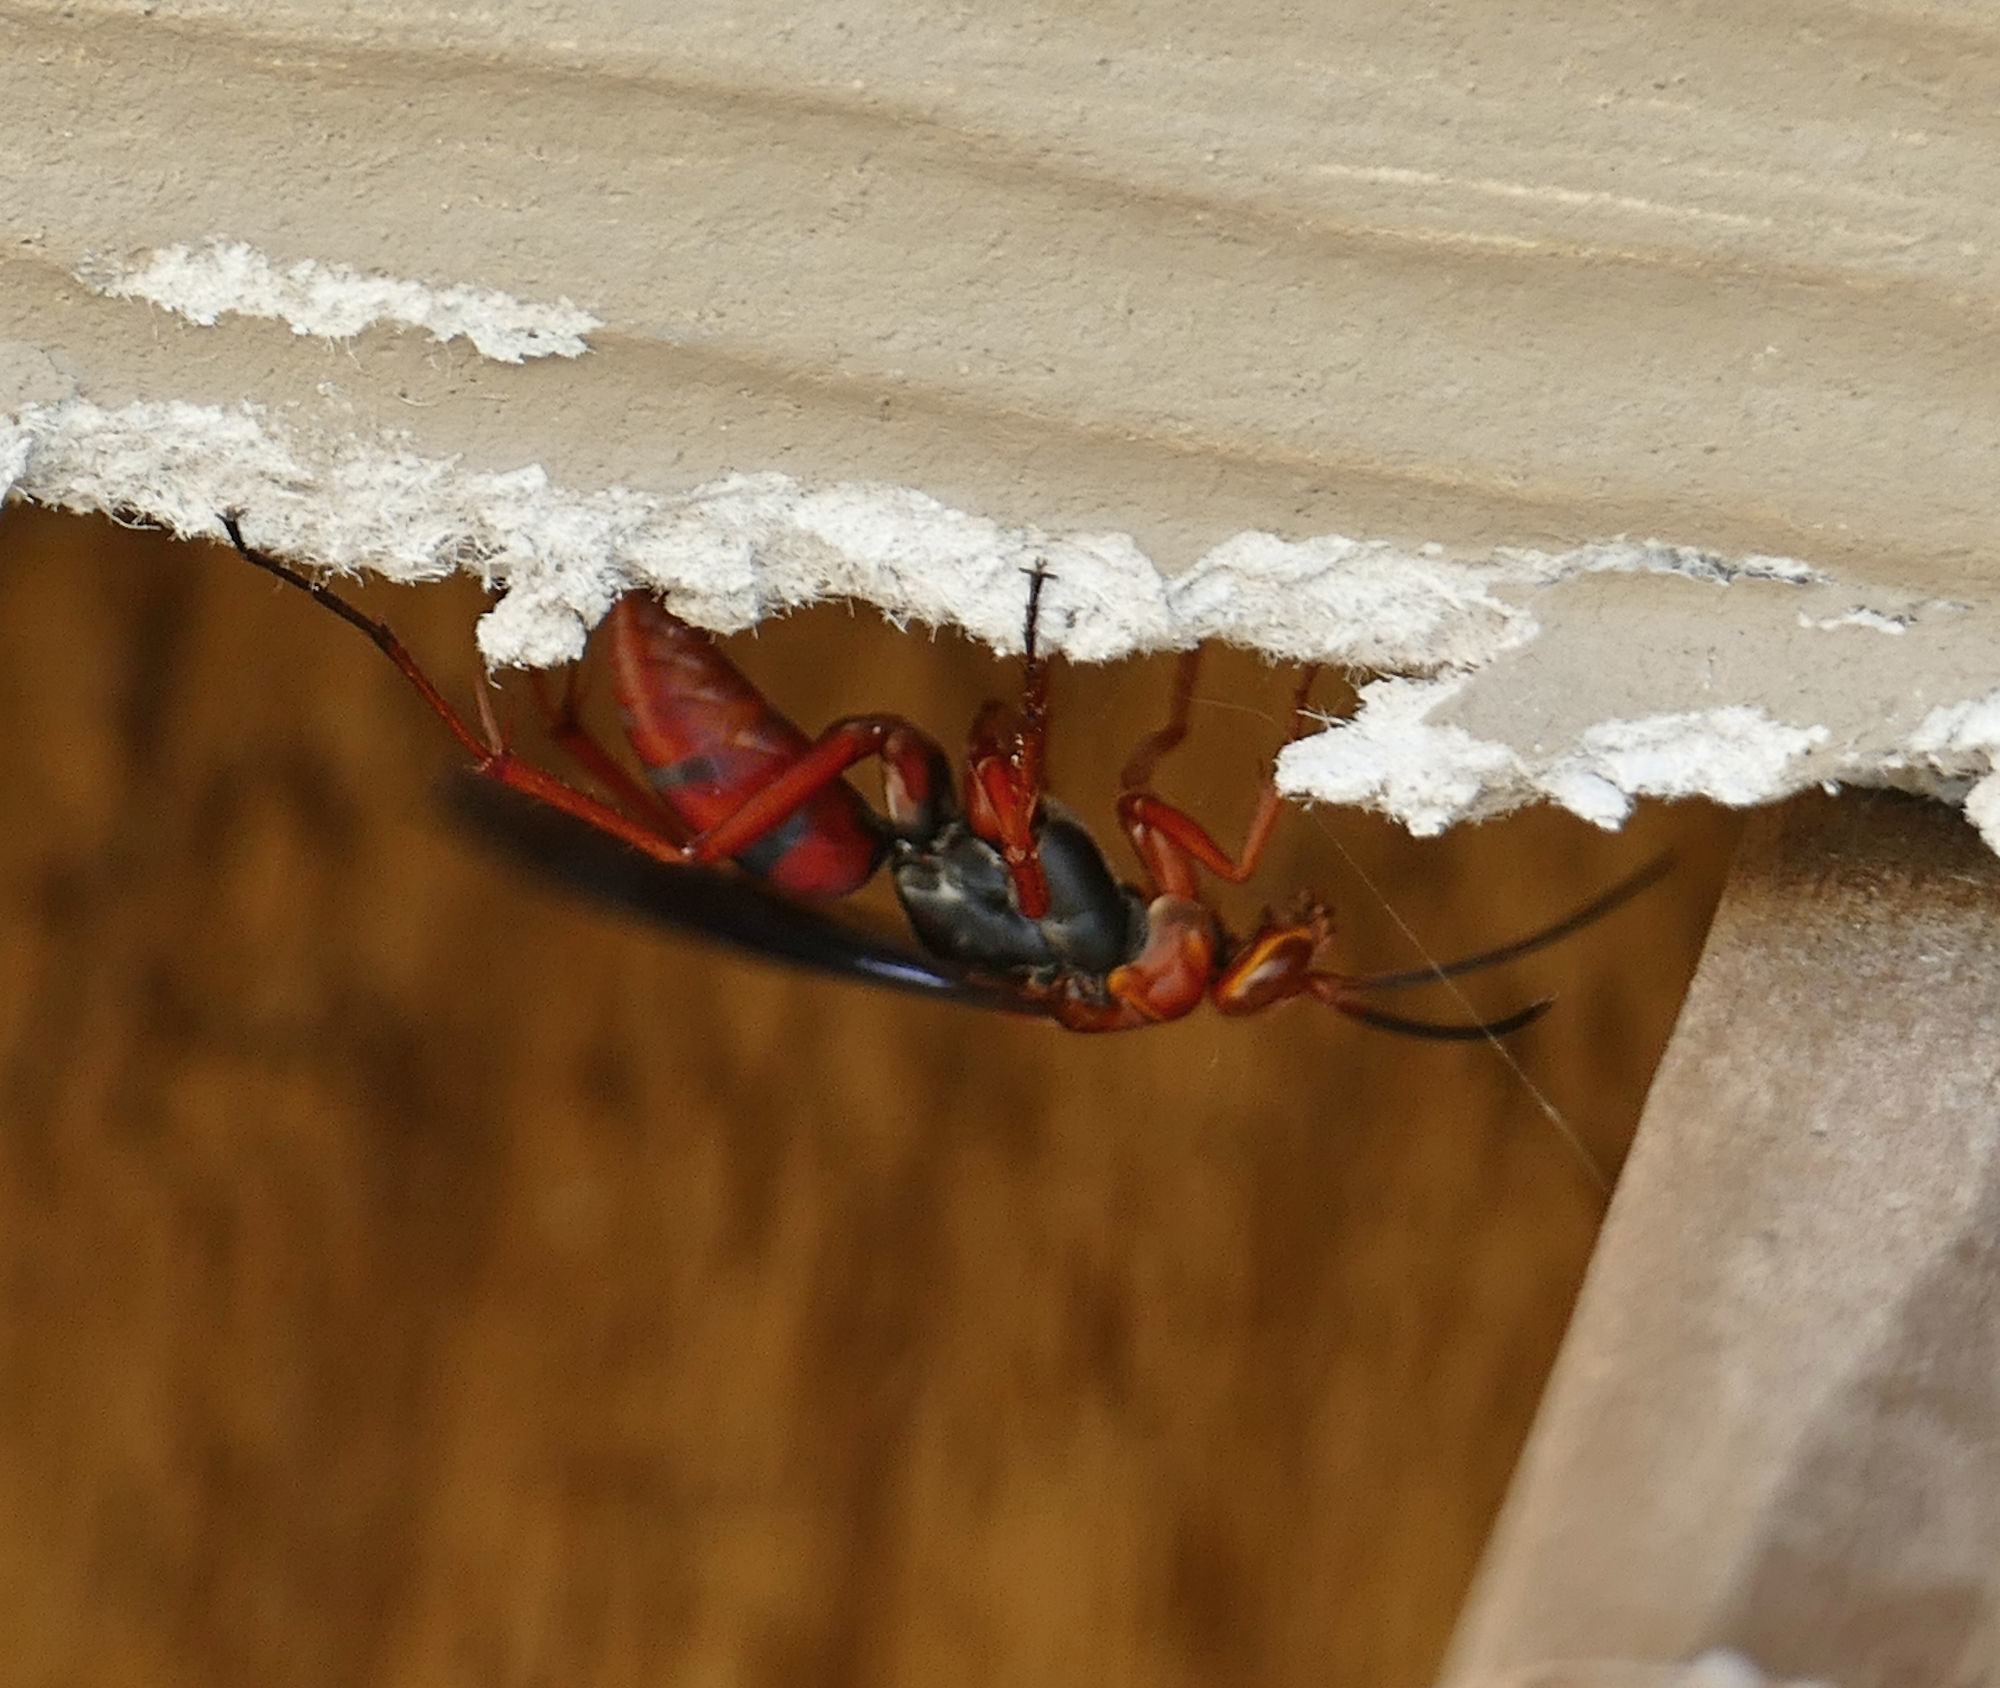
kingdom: Animalia
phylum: Arthropoda
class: Insecta
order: Hymenoptera
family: Pompilidae
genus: Tachypompilus
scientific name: Tachypompilus ferrugineus
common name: Rusty spider wasp
